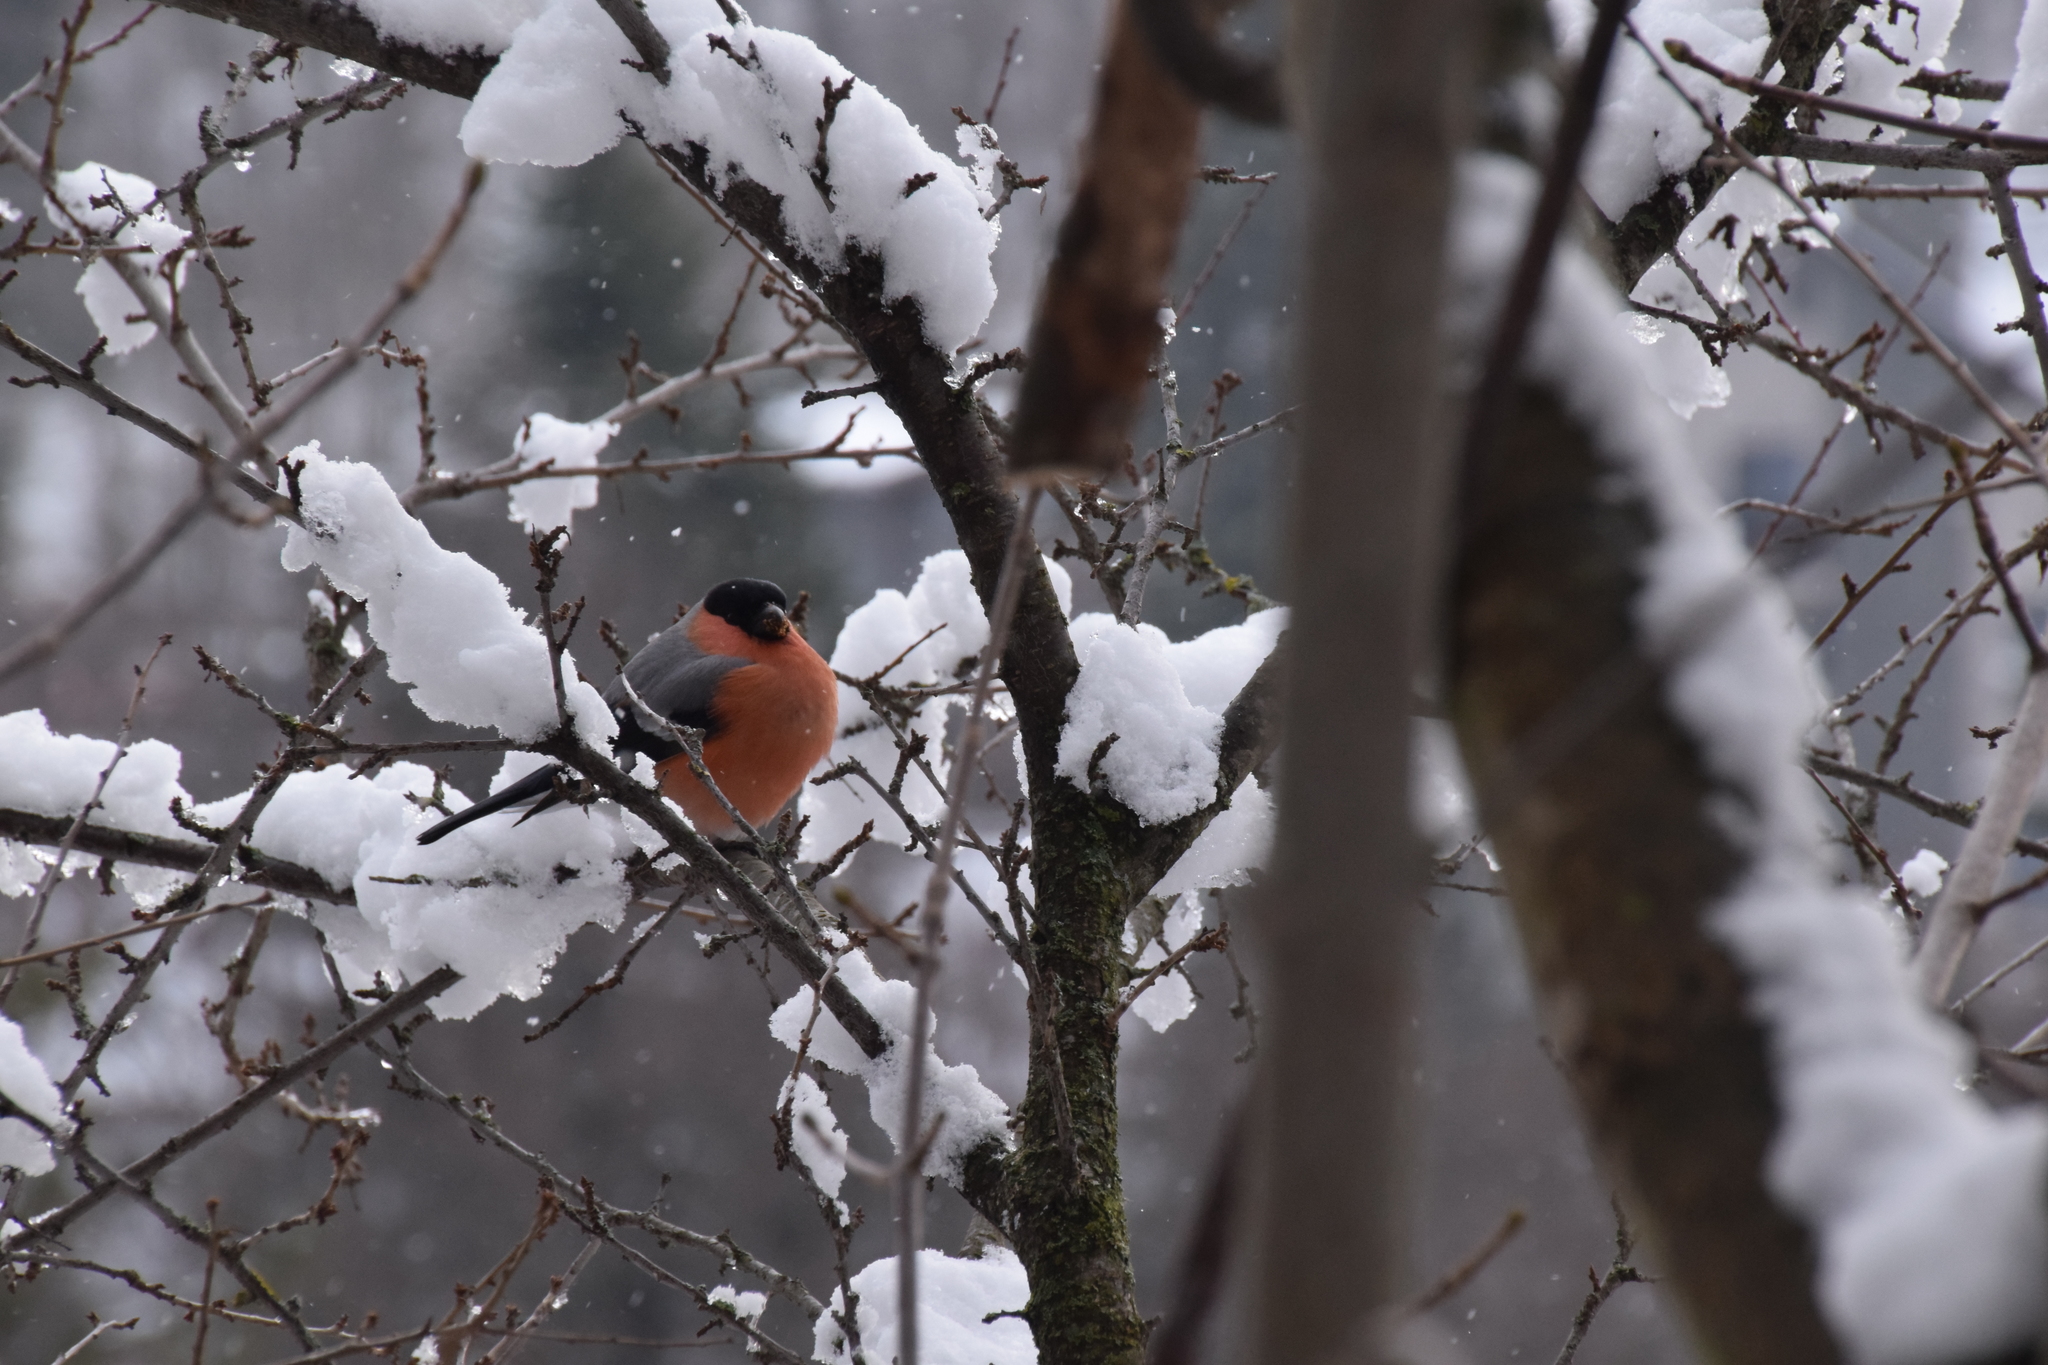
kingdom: Animalia
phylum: Chordata
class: Aves
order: Passeriformes
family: Fringillidae
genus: Pyrrhula
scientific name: Pyrrhula pyrrhula
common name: Eurasian bullfinch
